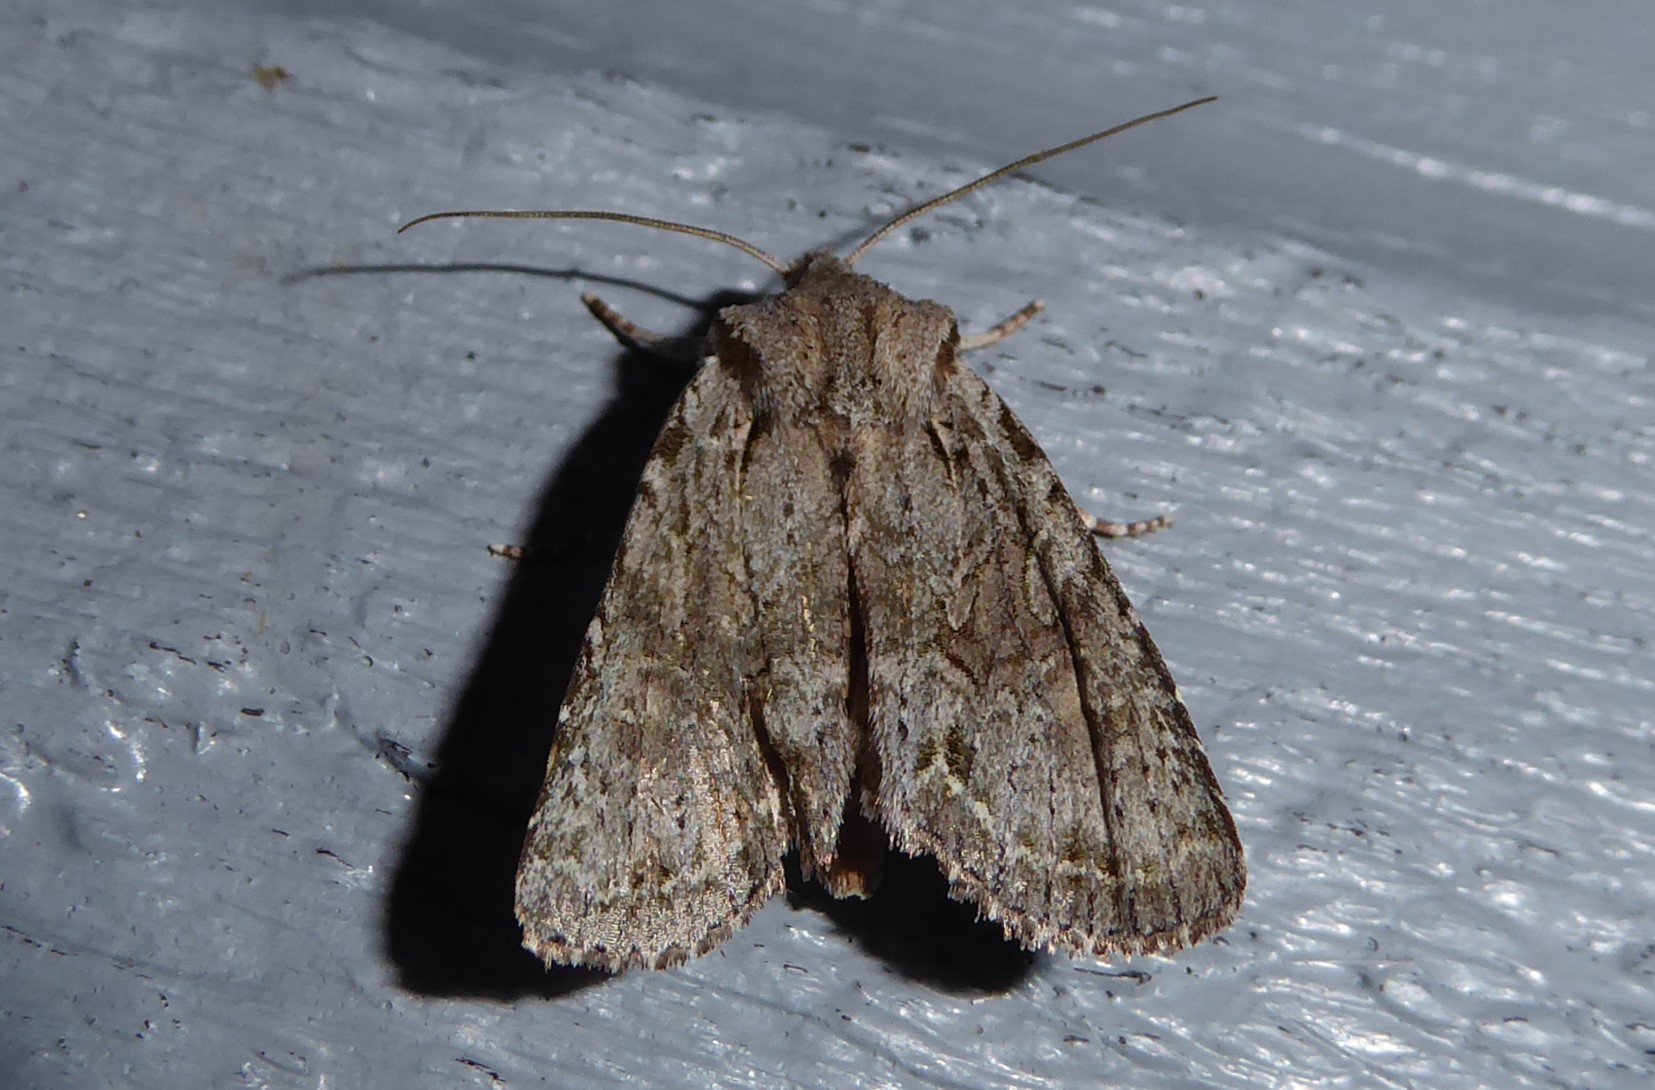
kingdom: Animalia
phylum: Arthropoda
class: Insecta
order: Lepidoptera
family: Noctuidae
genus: Ichneutica
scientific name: Ichneutica mutans
